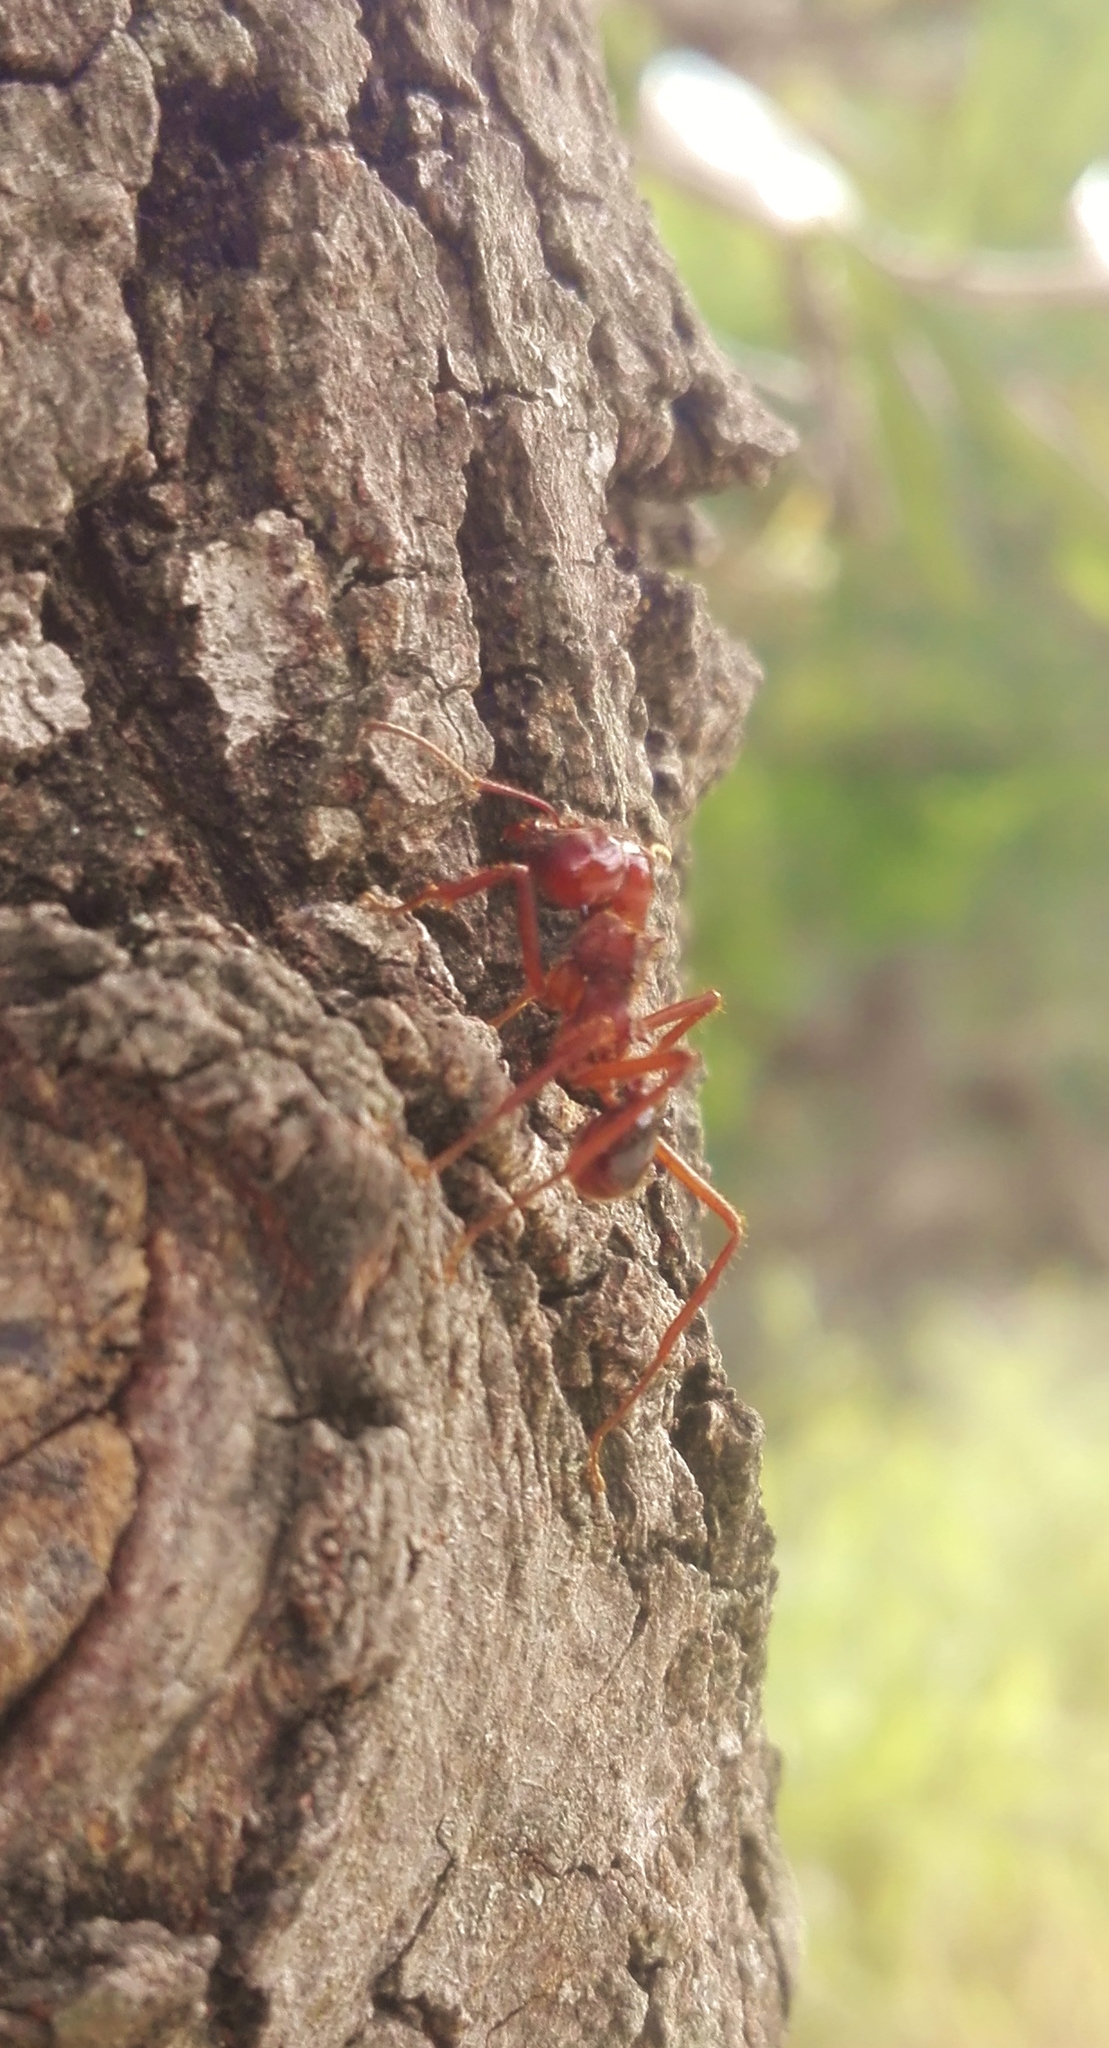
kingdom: Animalia
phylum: Arthropoda
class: Insecta
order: Hymenoptera
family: Formicidae
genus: Atta
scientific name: Atta mexicana
